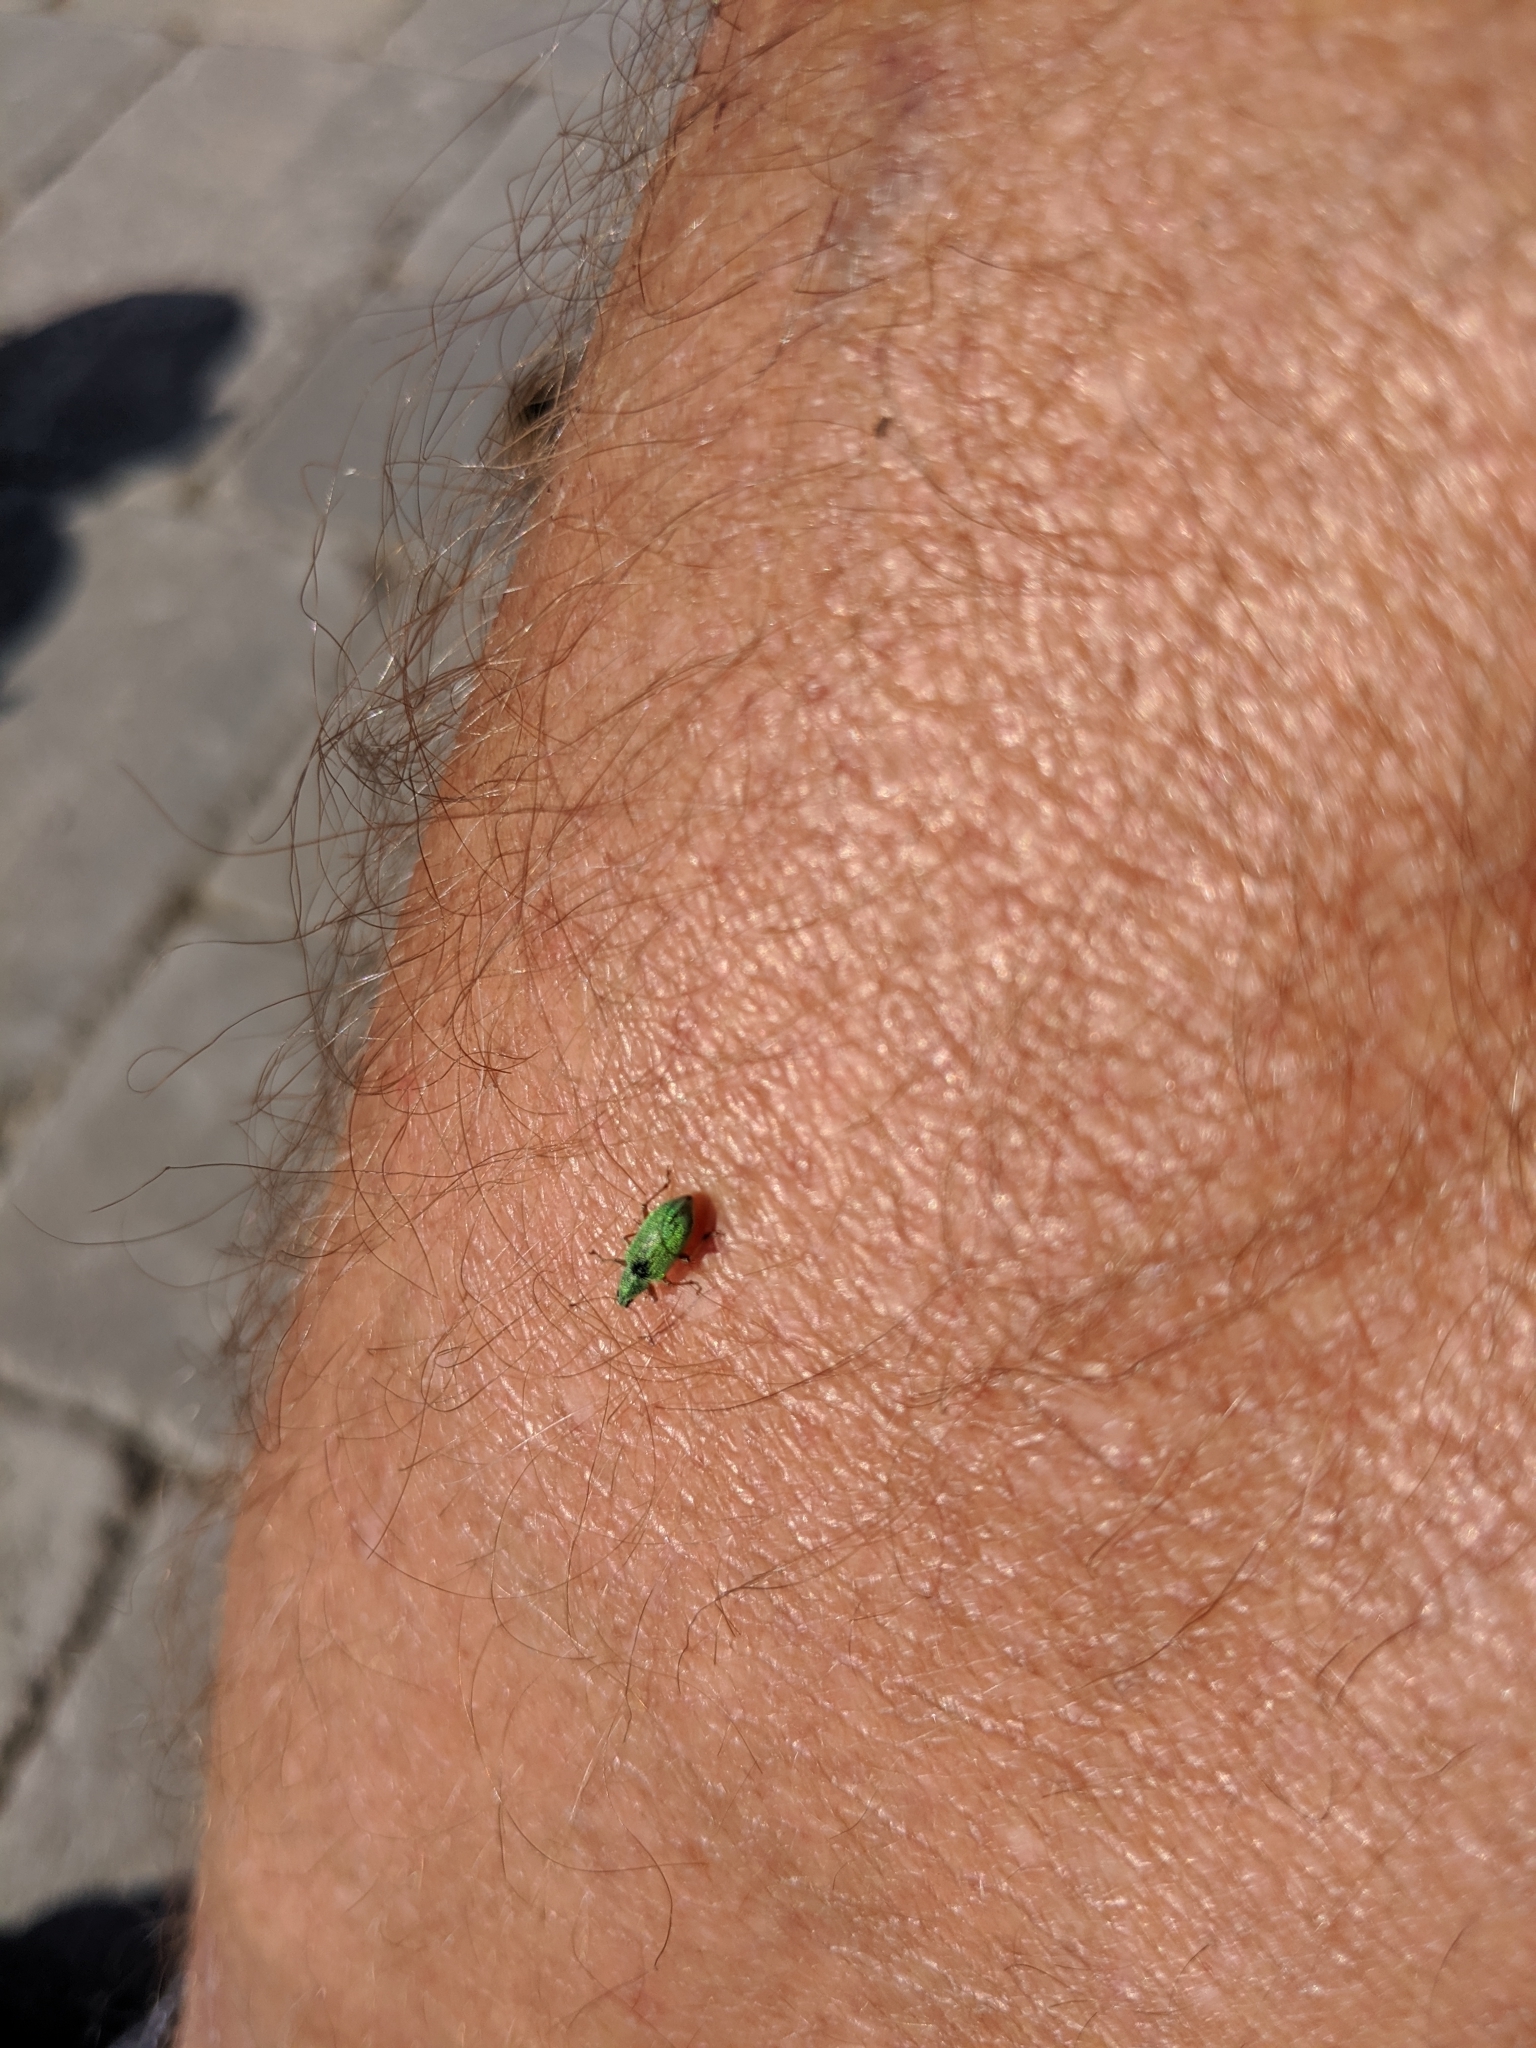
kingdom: Animalia
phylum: Arthropoda
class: Insecta
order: Coleoptera
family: Curculionidae
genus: Polydrusus
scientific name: Polydrusus formosus
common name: Weevil
